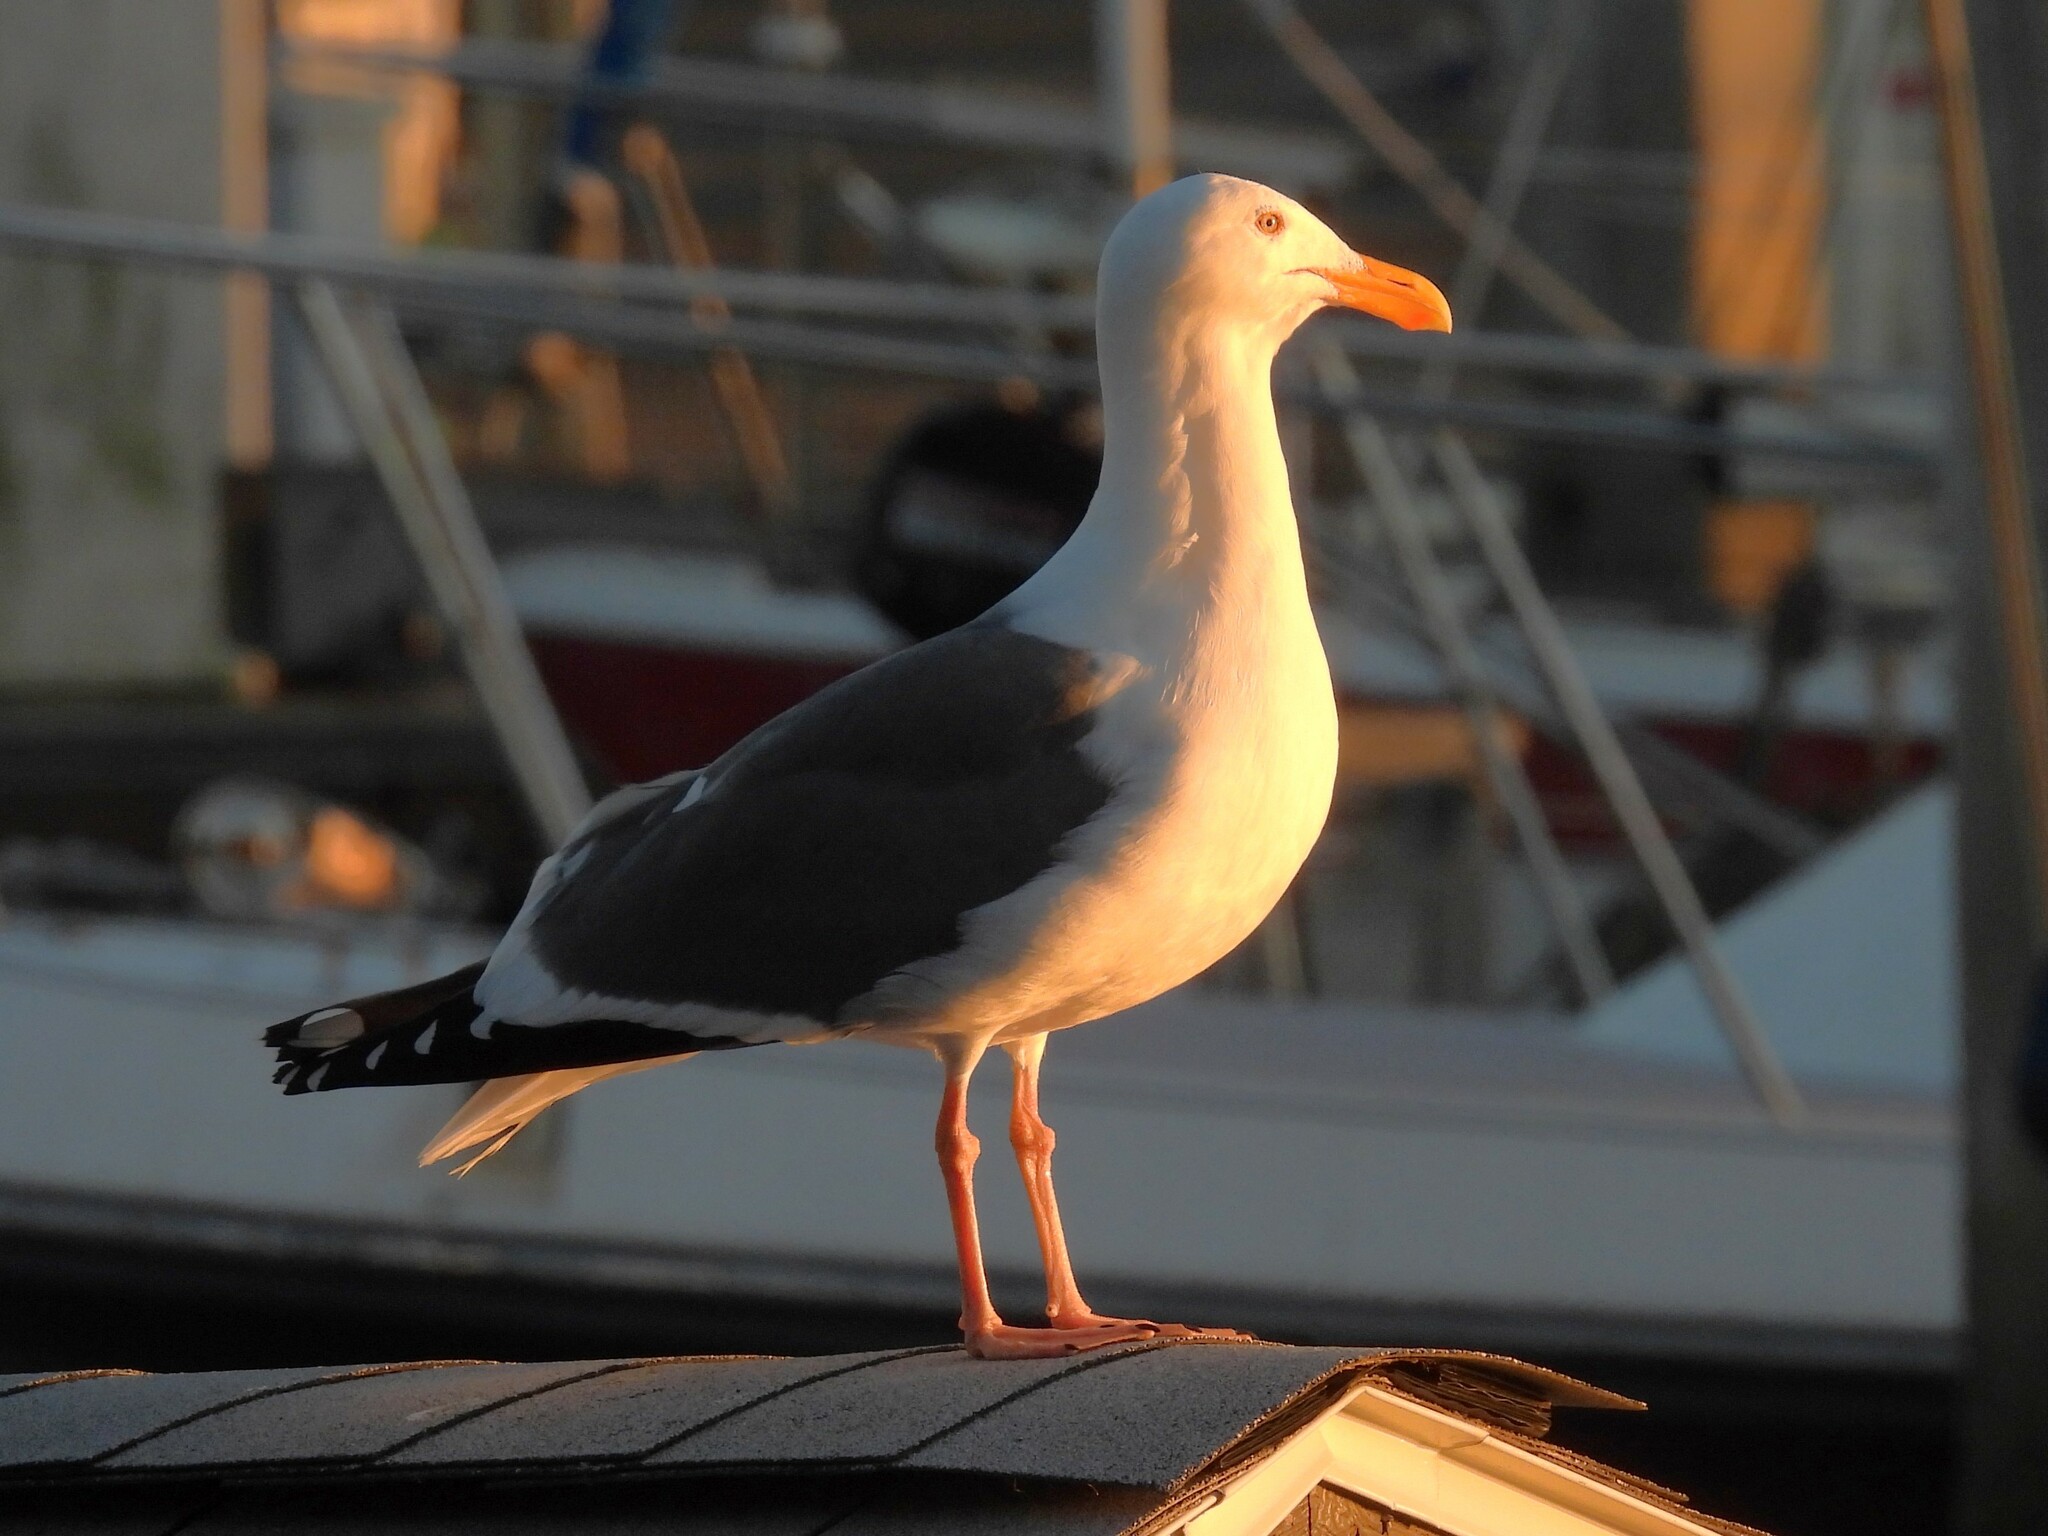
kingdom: Animalia
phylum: Chordata
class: Aves
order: Charadriiformes
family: Laridae
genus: Larus
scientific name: Larus occidentalis
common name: Western gull
